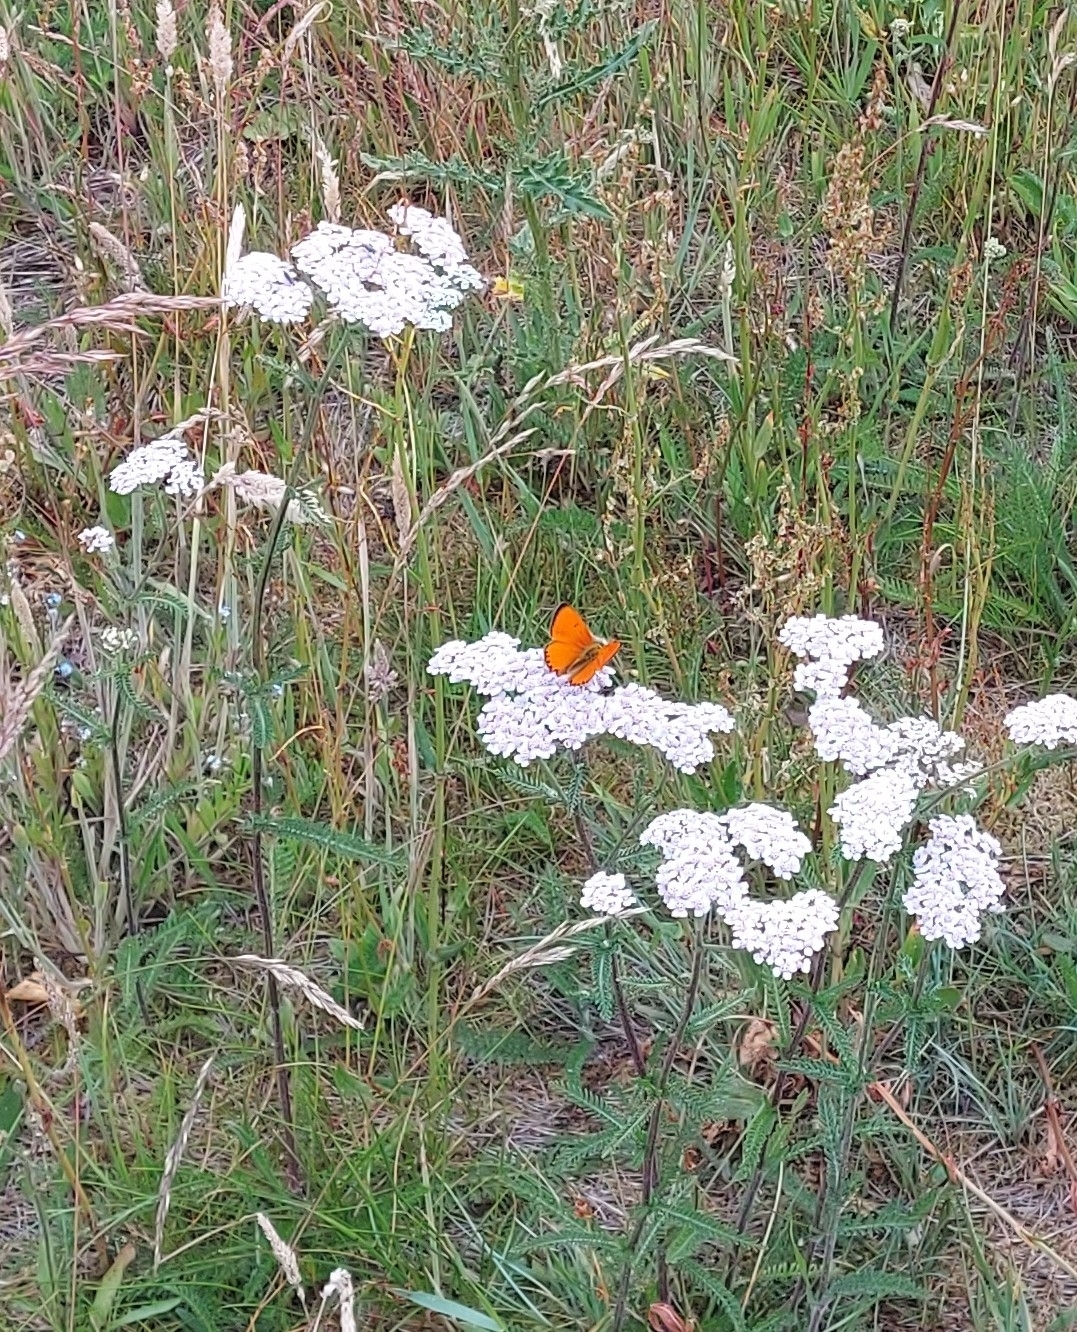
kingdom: Animalia
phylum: Arthropoda
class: Insecta
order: Lepidoptera
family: Lycaenidae
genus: Lycaena
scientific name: Lycaena virgaureae
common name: Scarce copper
